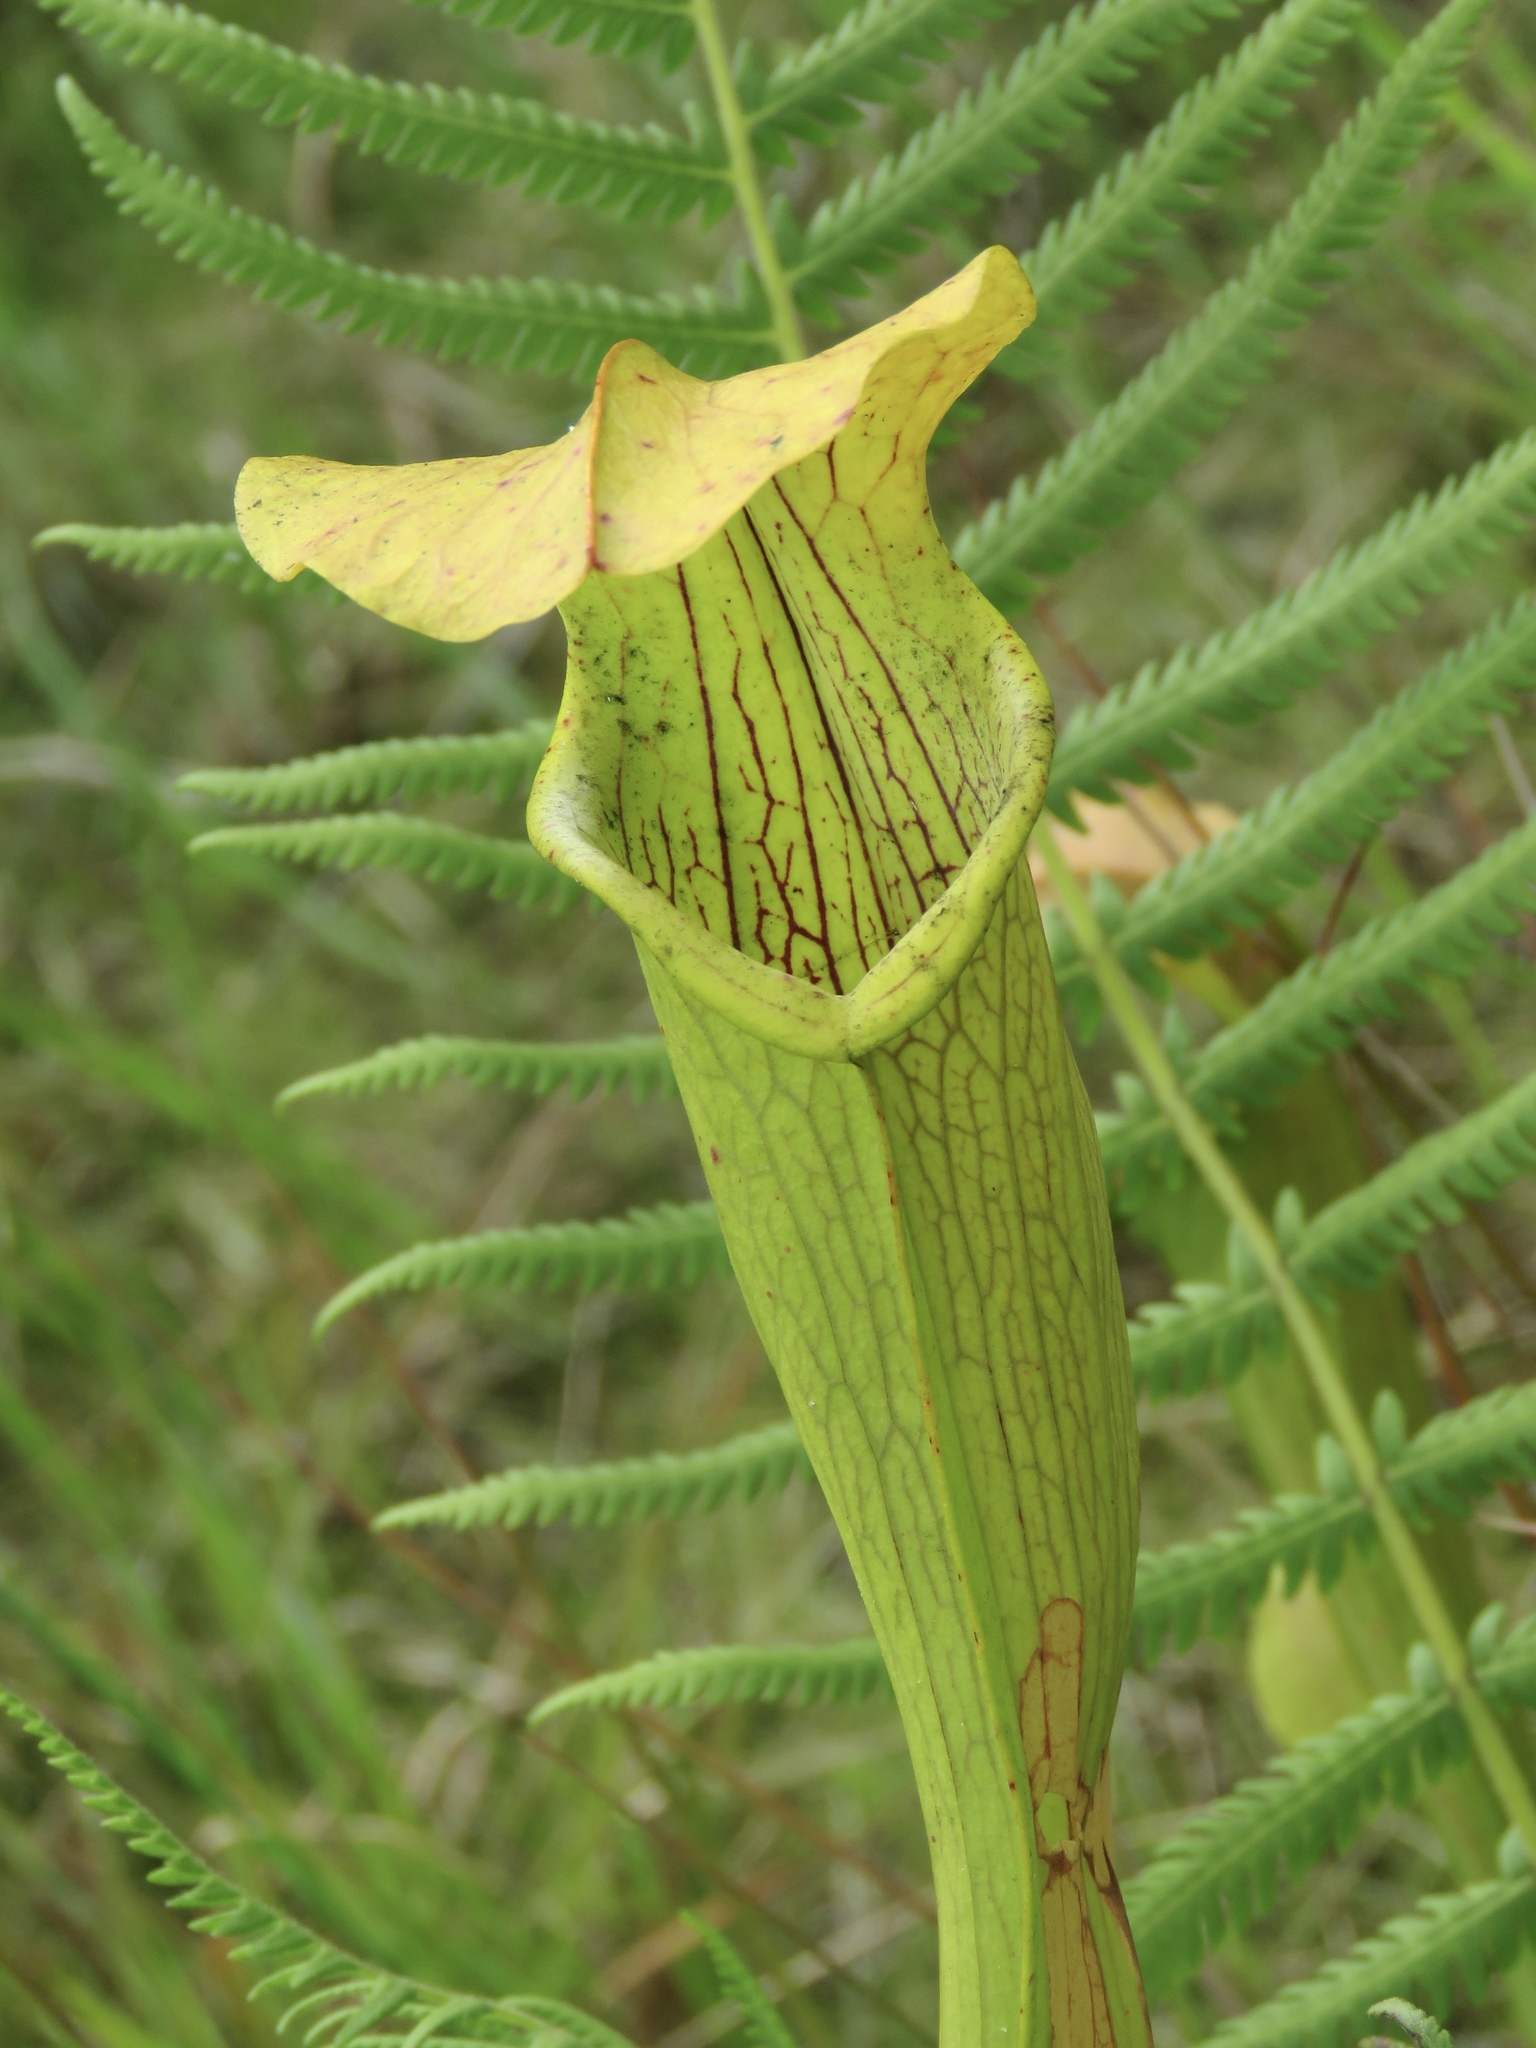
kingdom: Plantae
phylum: Tracheophyta
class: Magnoliopsida
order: Ericales
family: Sarraceniaceae
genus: Sarracenia
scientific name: Sarracenia alata
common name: Yellow trumpets
